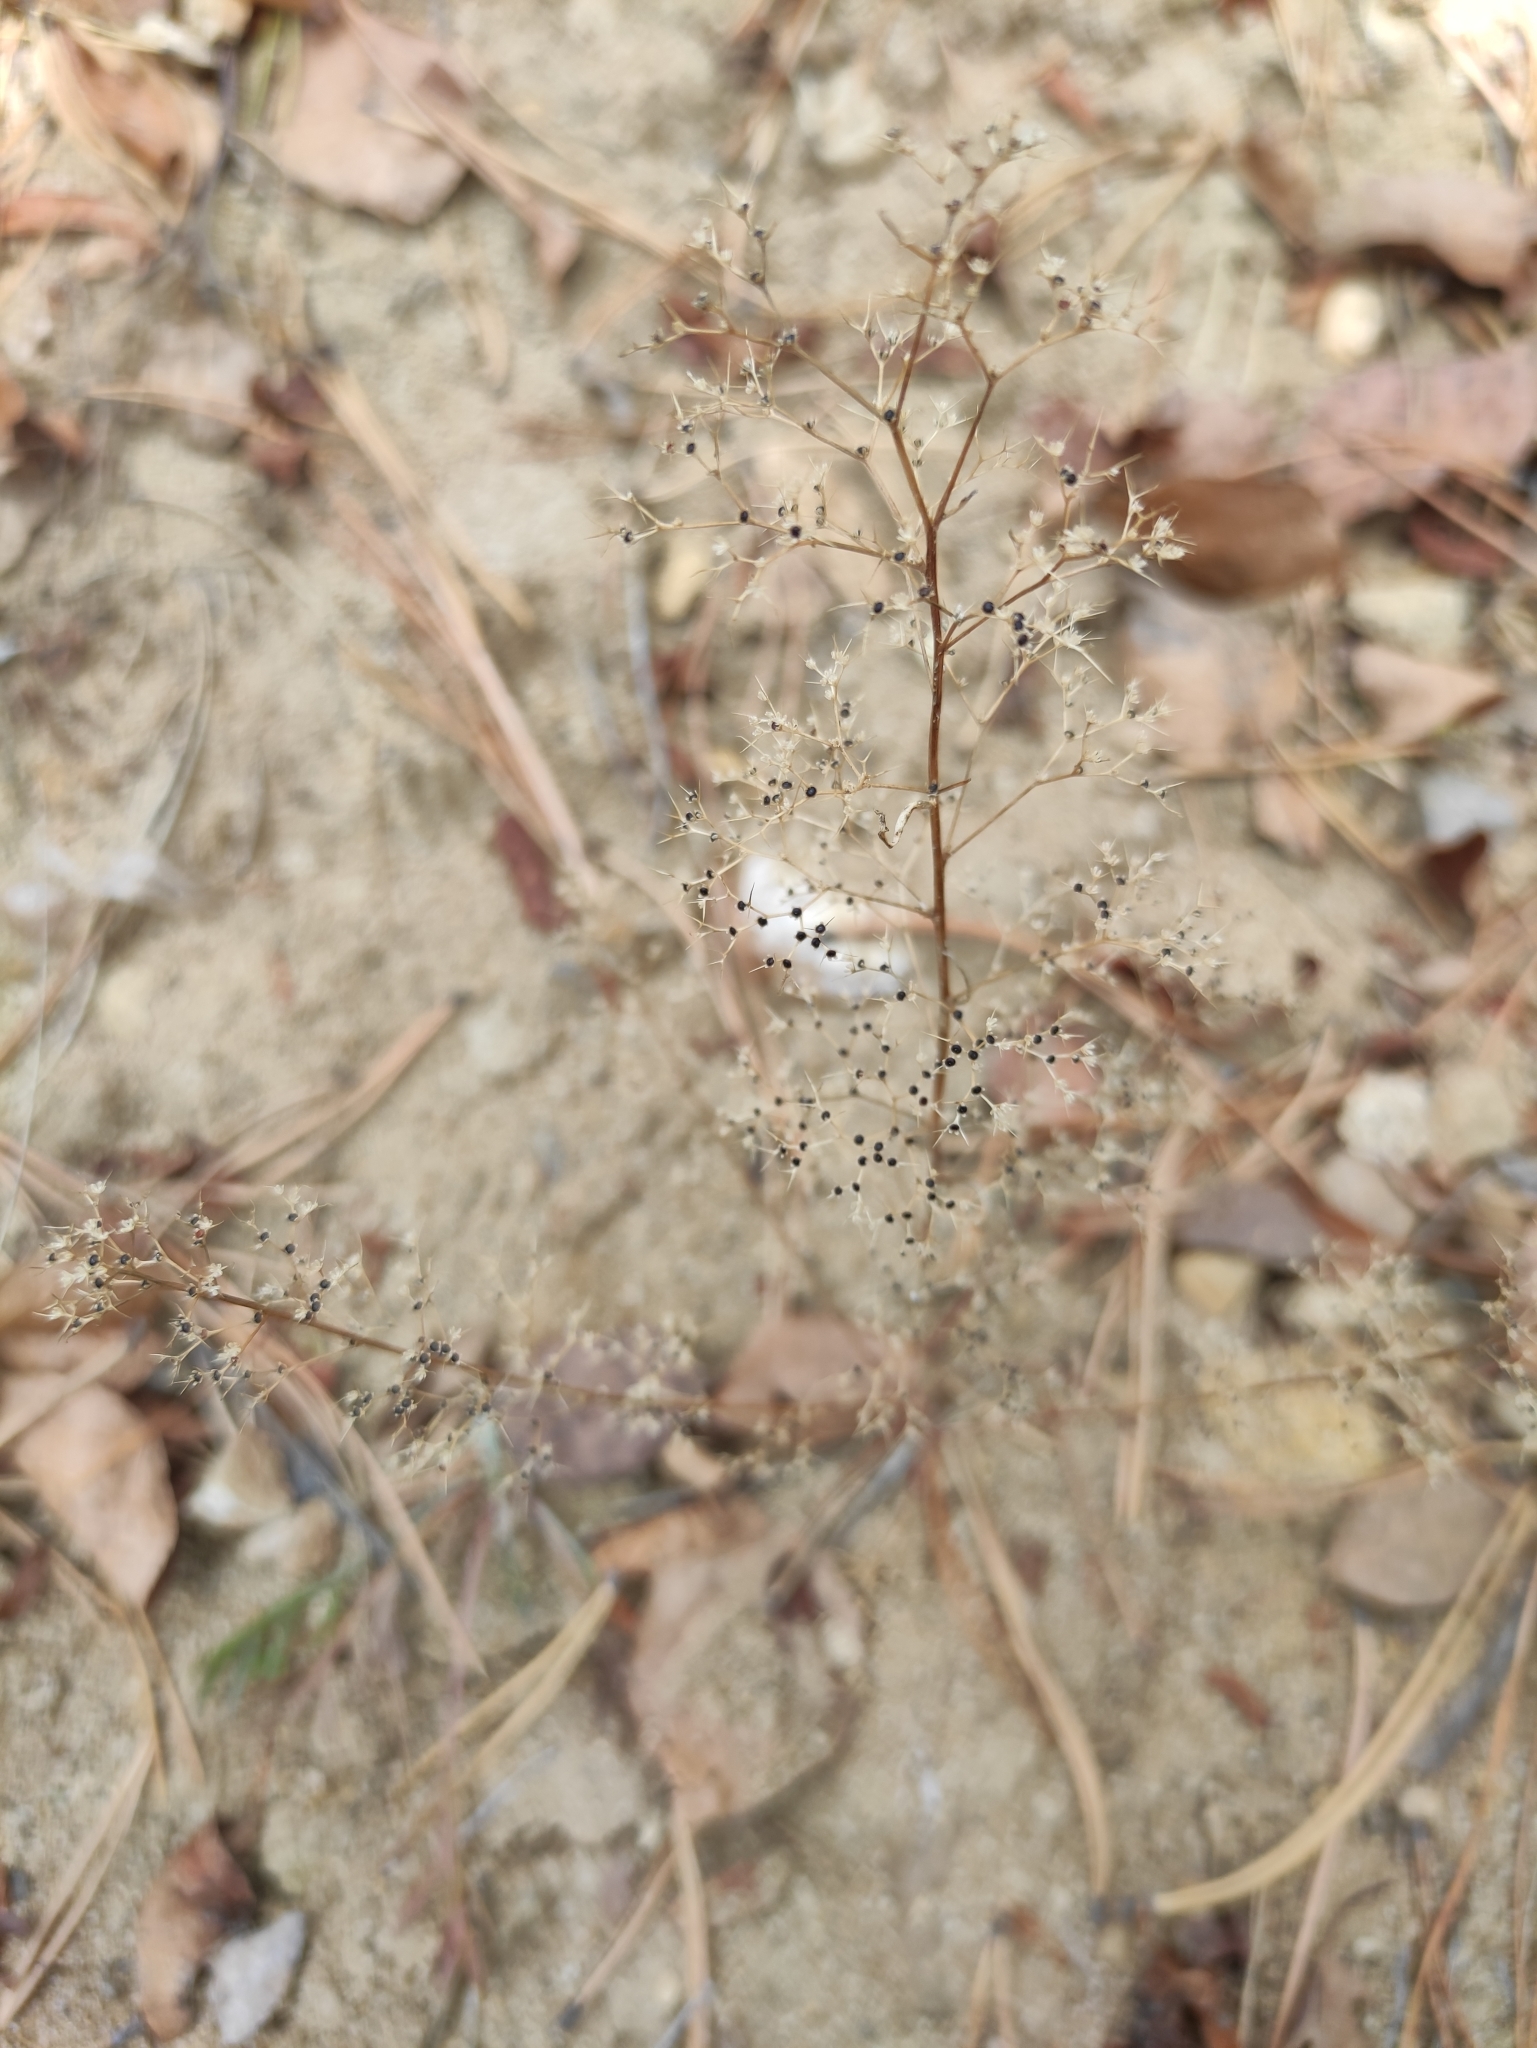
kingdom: Plantae
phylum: Tracheophyta
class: Magnoliopsida
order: Caryophyllales
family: Amaranthaceae
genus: Teloxys
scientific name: Teloxys aristata
